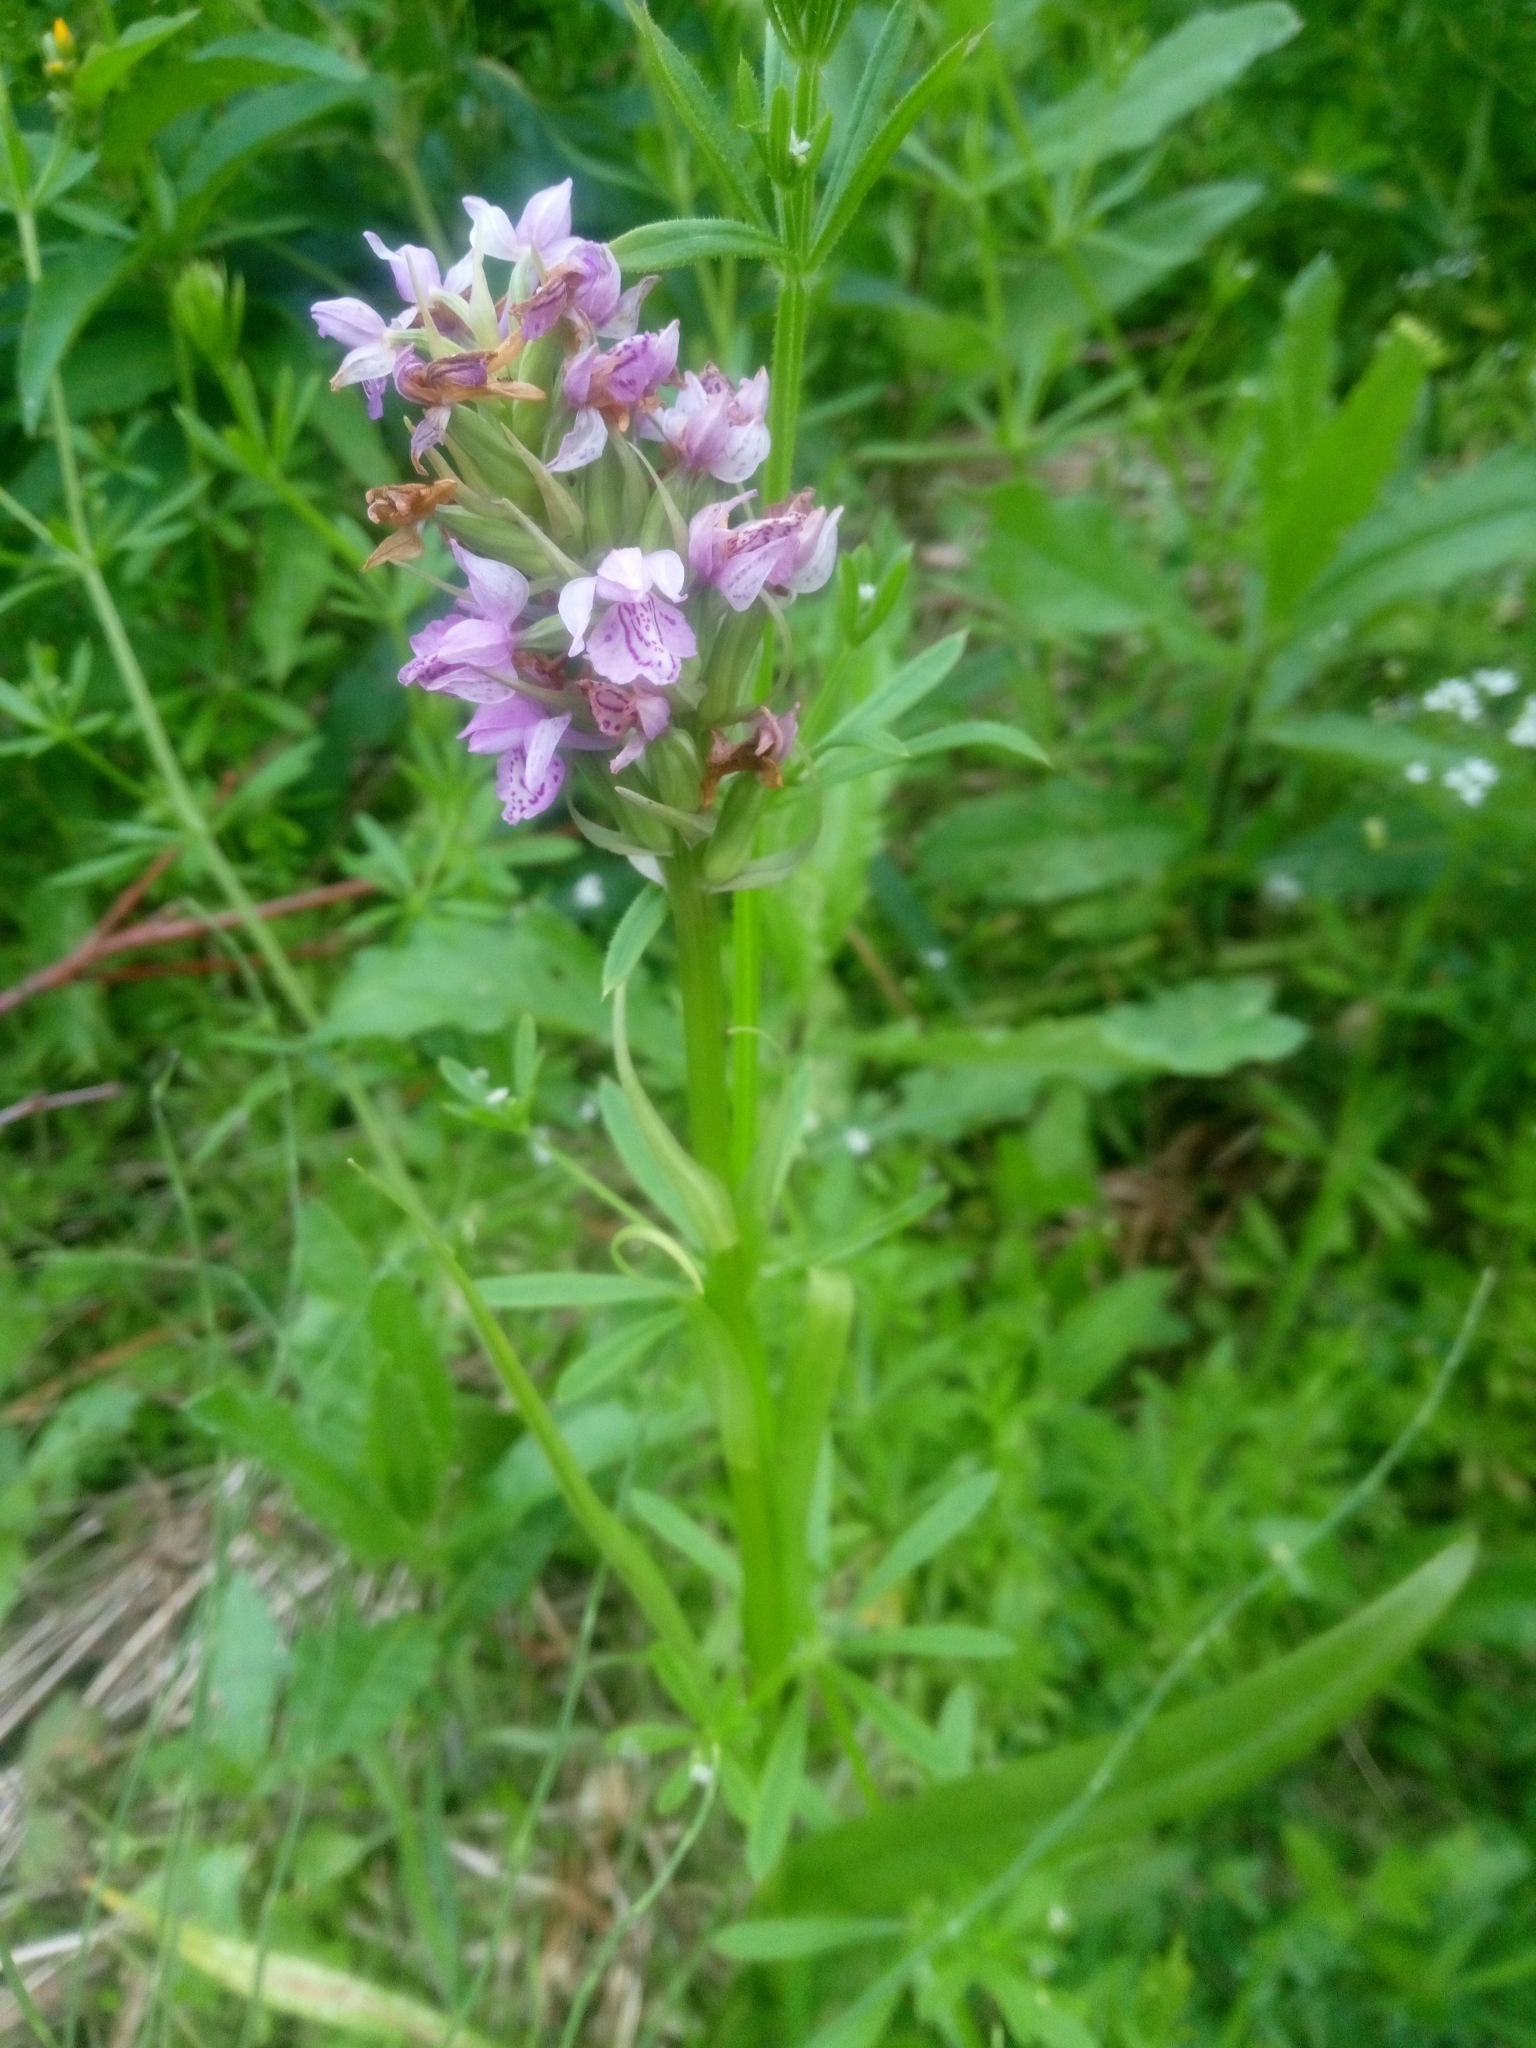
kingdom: Plantae
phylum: Tracheophyta
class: Liliopsida
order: Asparagales
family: Orchidaceae
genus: Dactylorhiza
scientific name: Dactylorhiza majalis
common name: Marsh orchid
